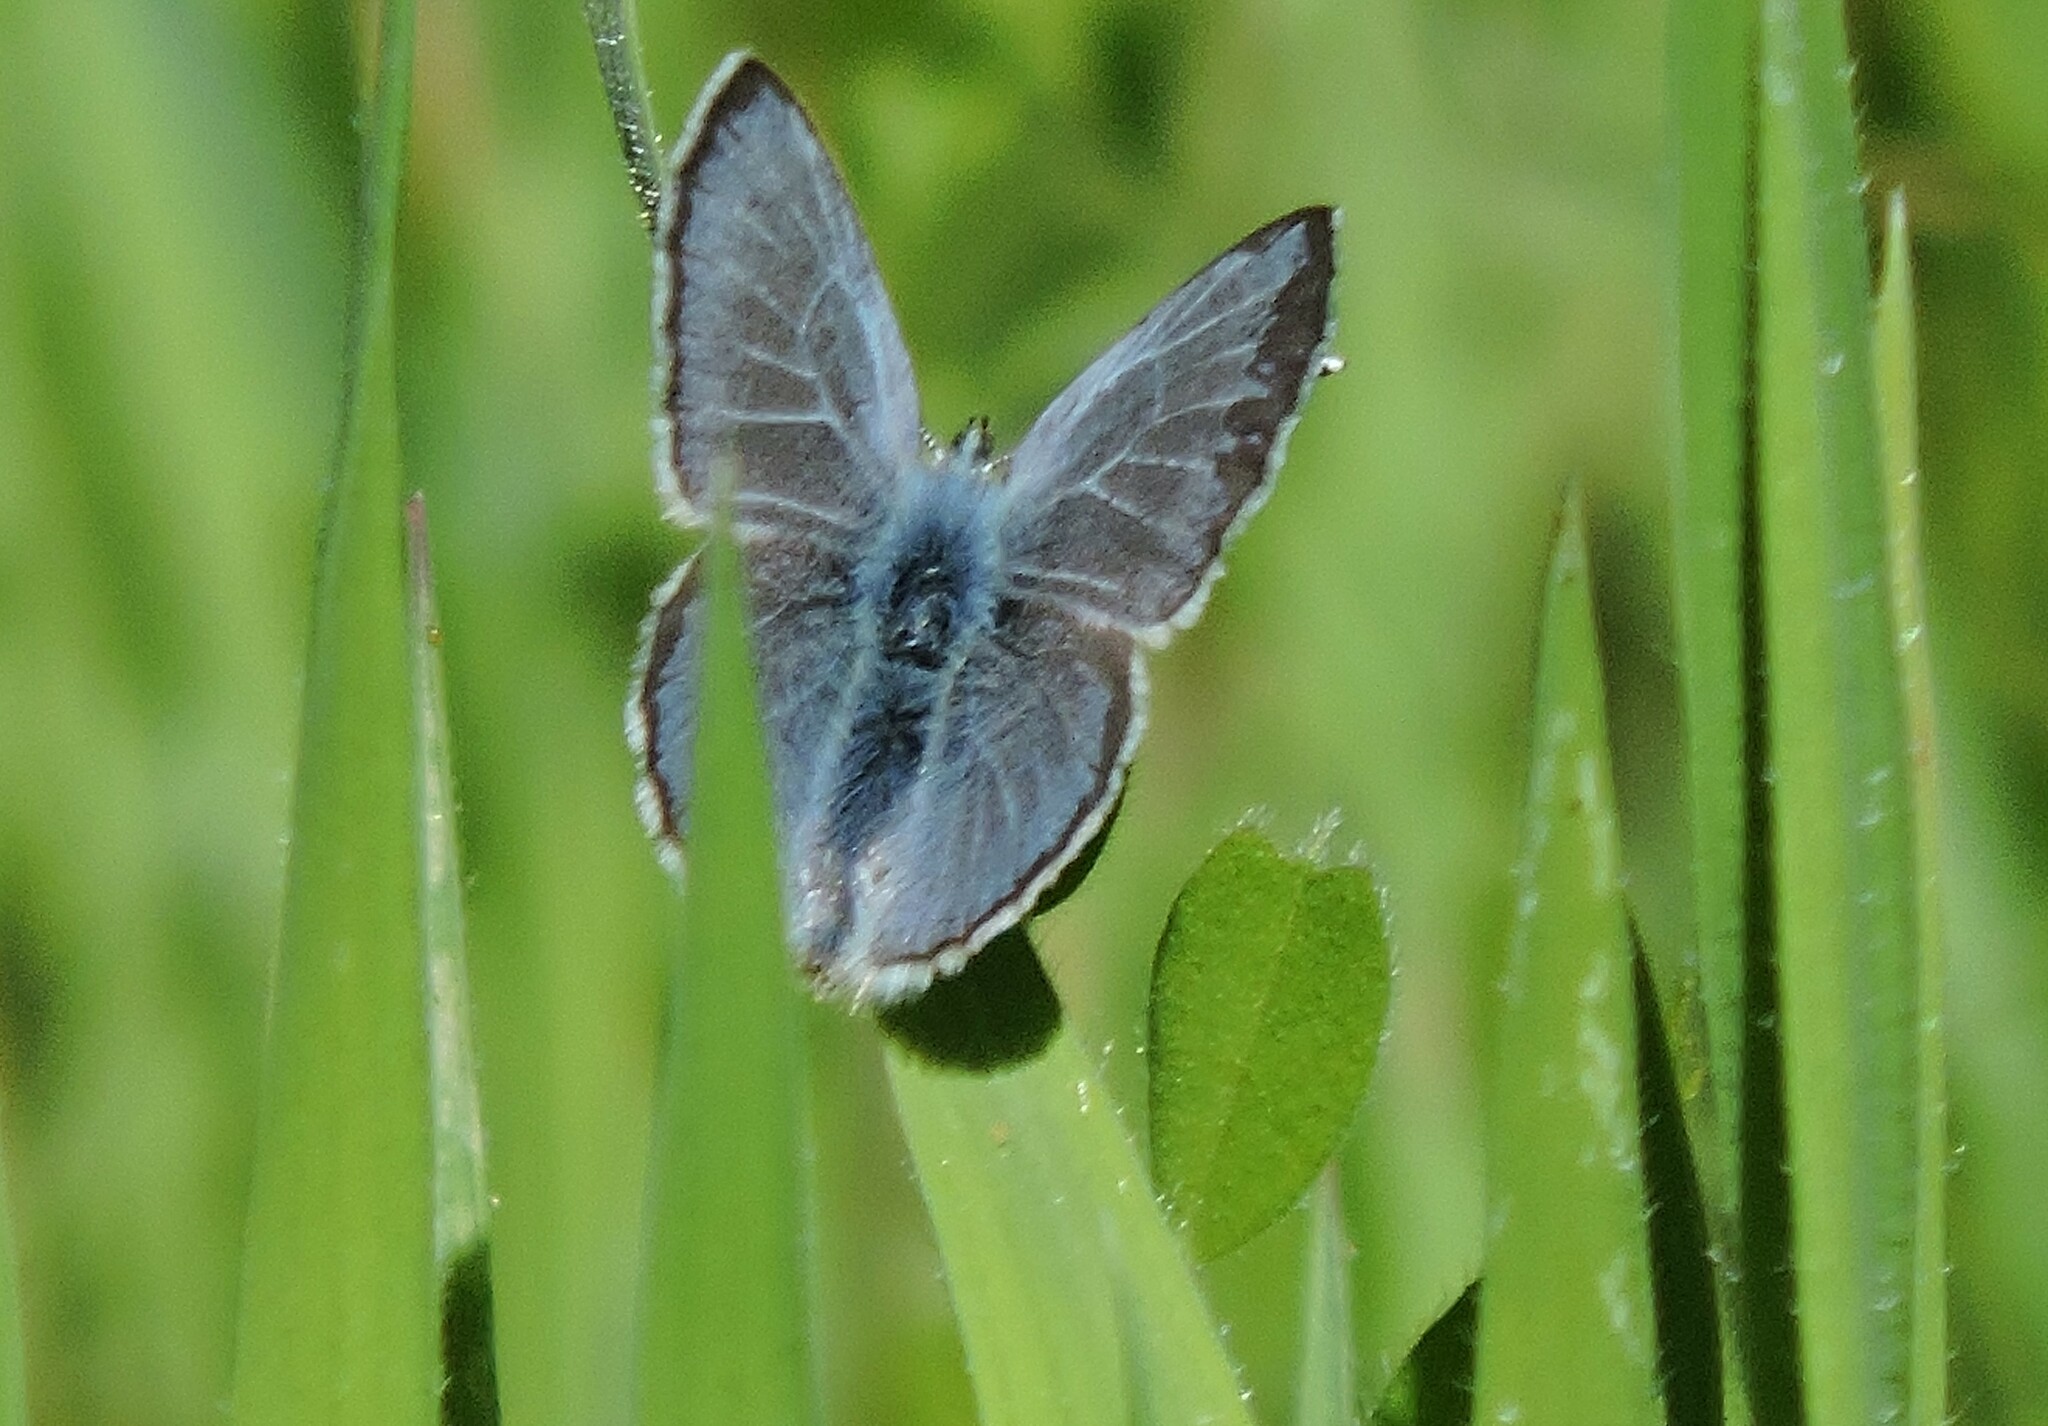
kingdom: Animalia
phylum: Arthropoda
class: Insecta
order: Lepidoptera
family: Lycaenidae
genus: Glaucopsyche
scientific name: Glaucopsyche lygdamus
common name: Silvery blue
